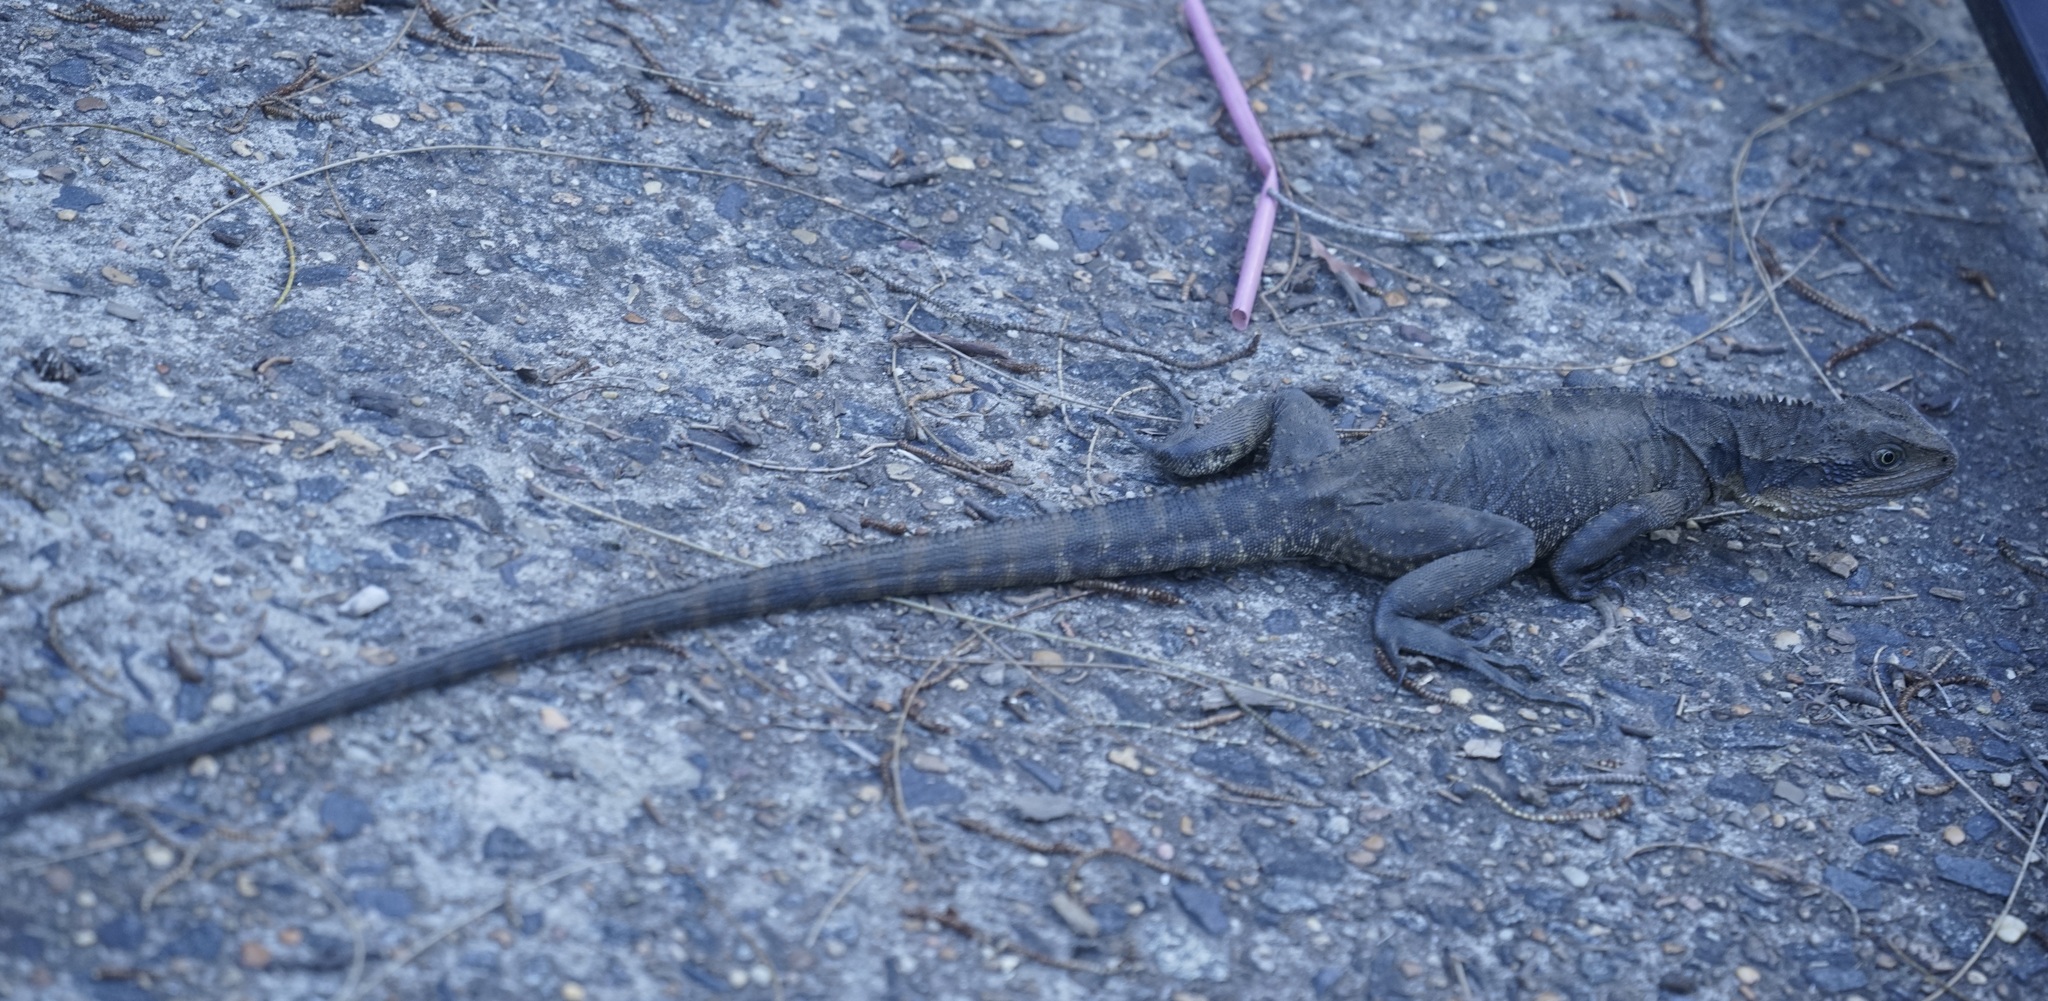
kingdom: Animalia
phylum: Chordata
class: Squamata
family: Agamidae
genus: Intellagama
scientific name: Intellagama lesueurii
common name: Eastern water dragon
